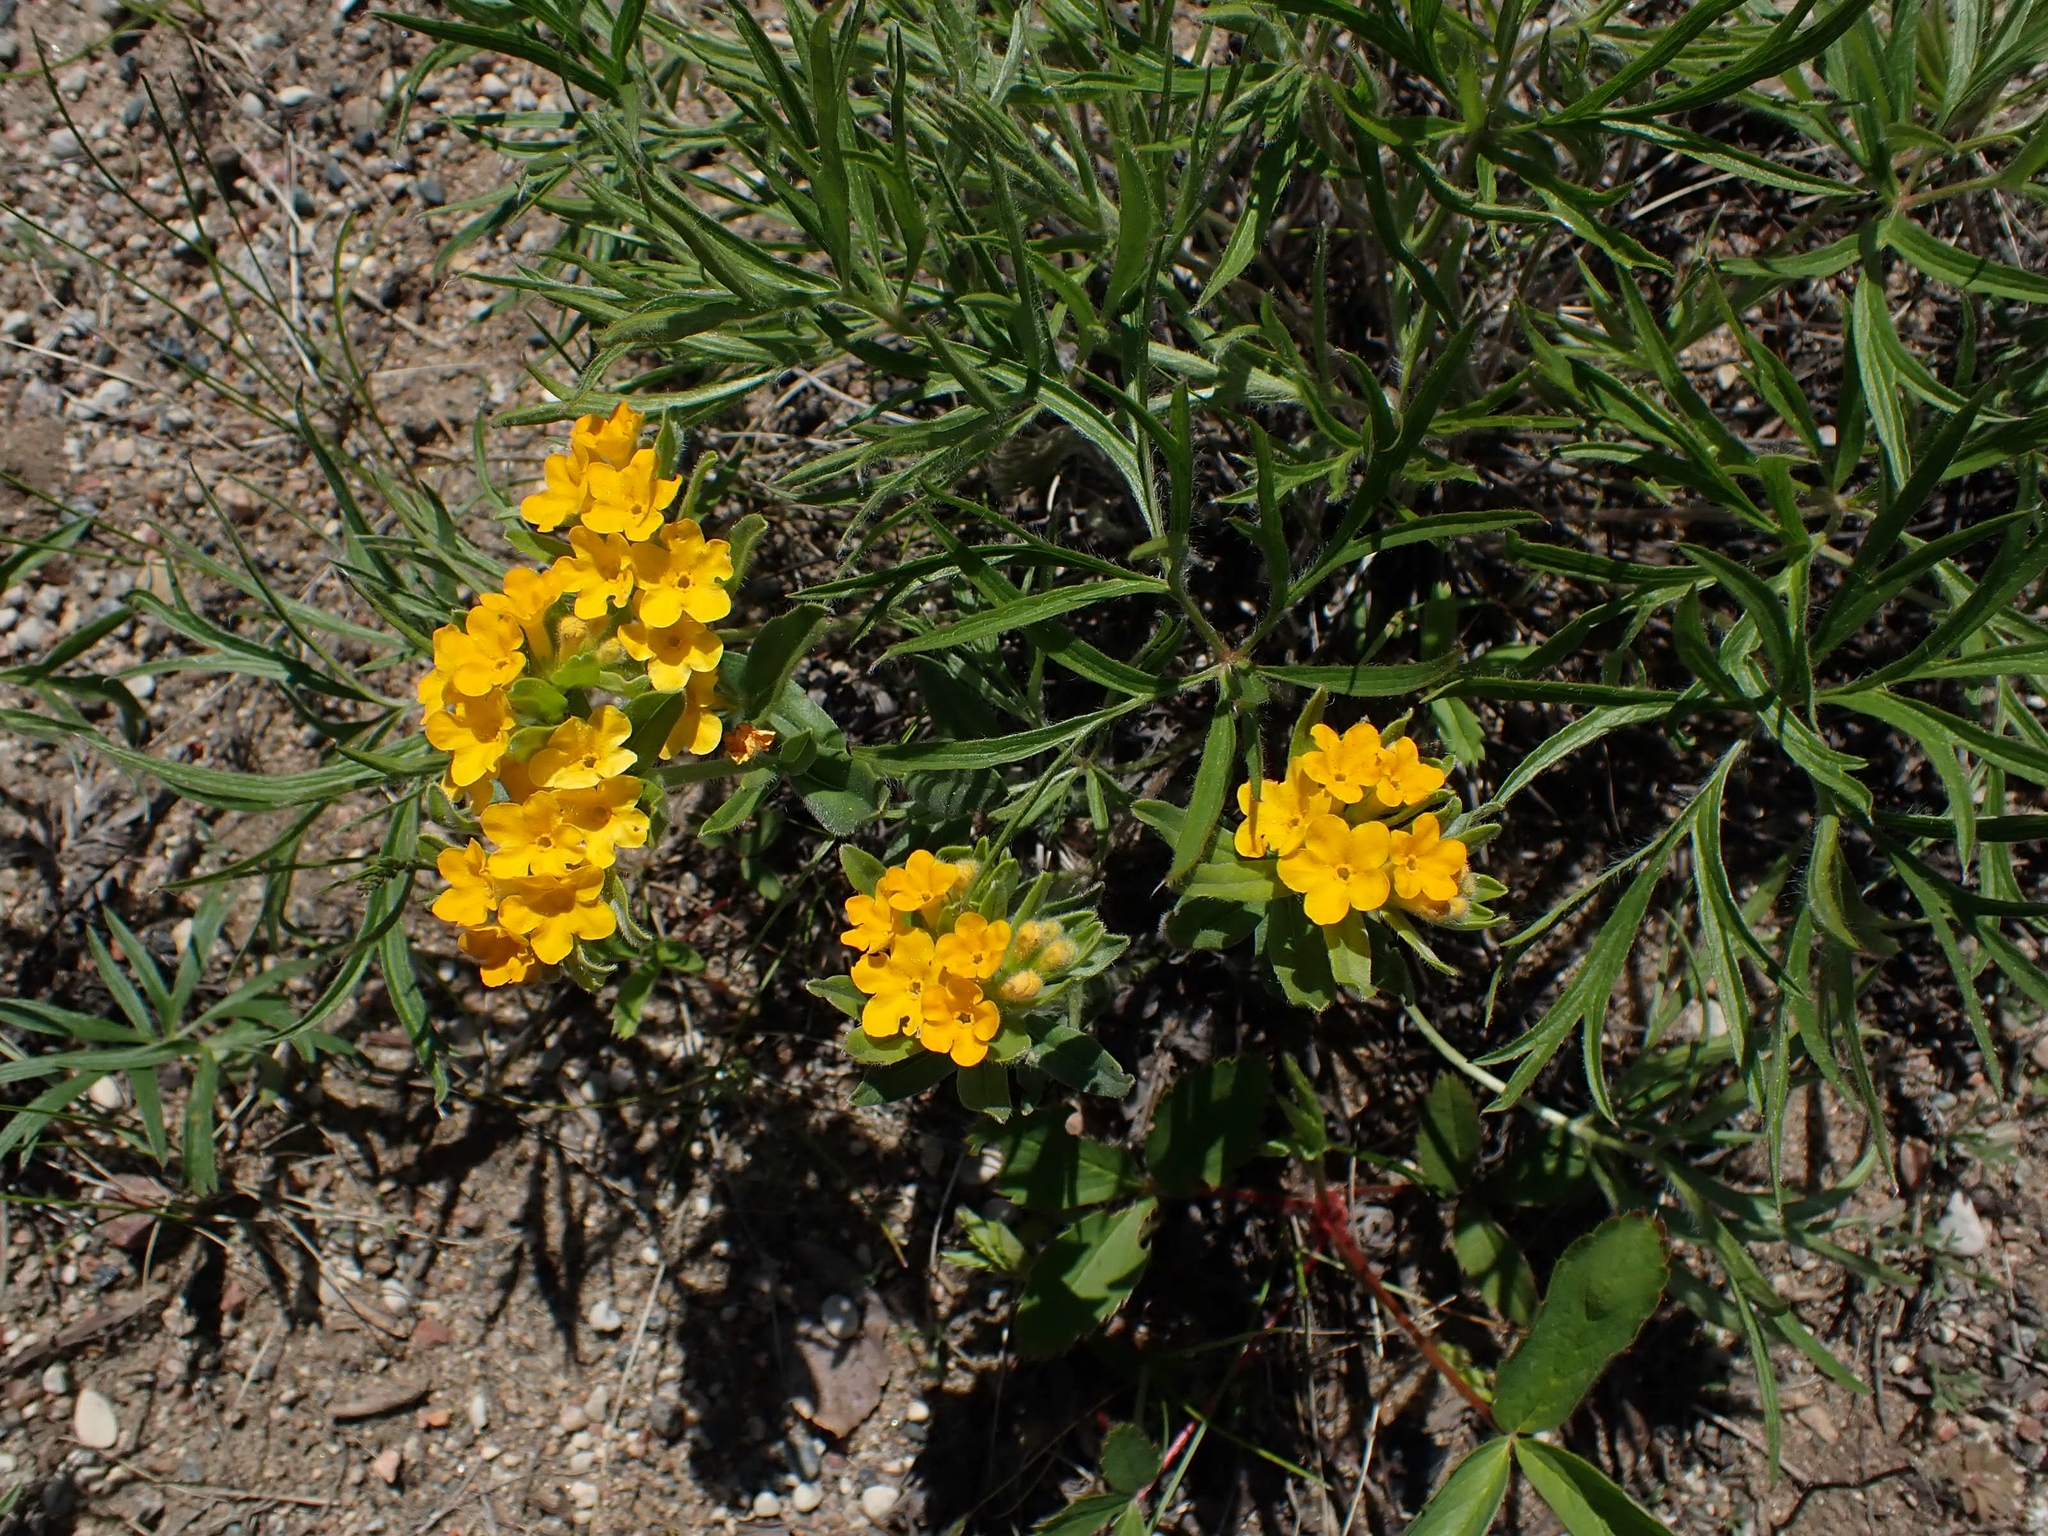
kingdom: Plantae
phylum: Tracheophyta
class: Magnoliopsida
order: Boraginales
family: Boraginaceae
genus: Lithospermum
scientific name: Lithospermum canescens
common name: Hoary puccoon
